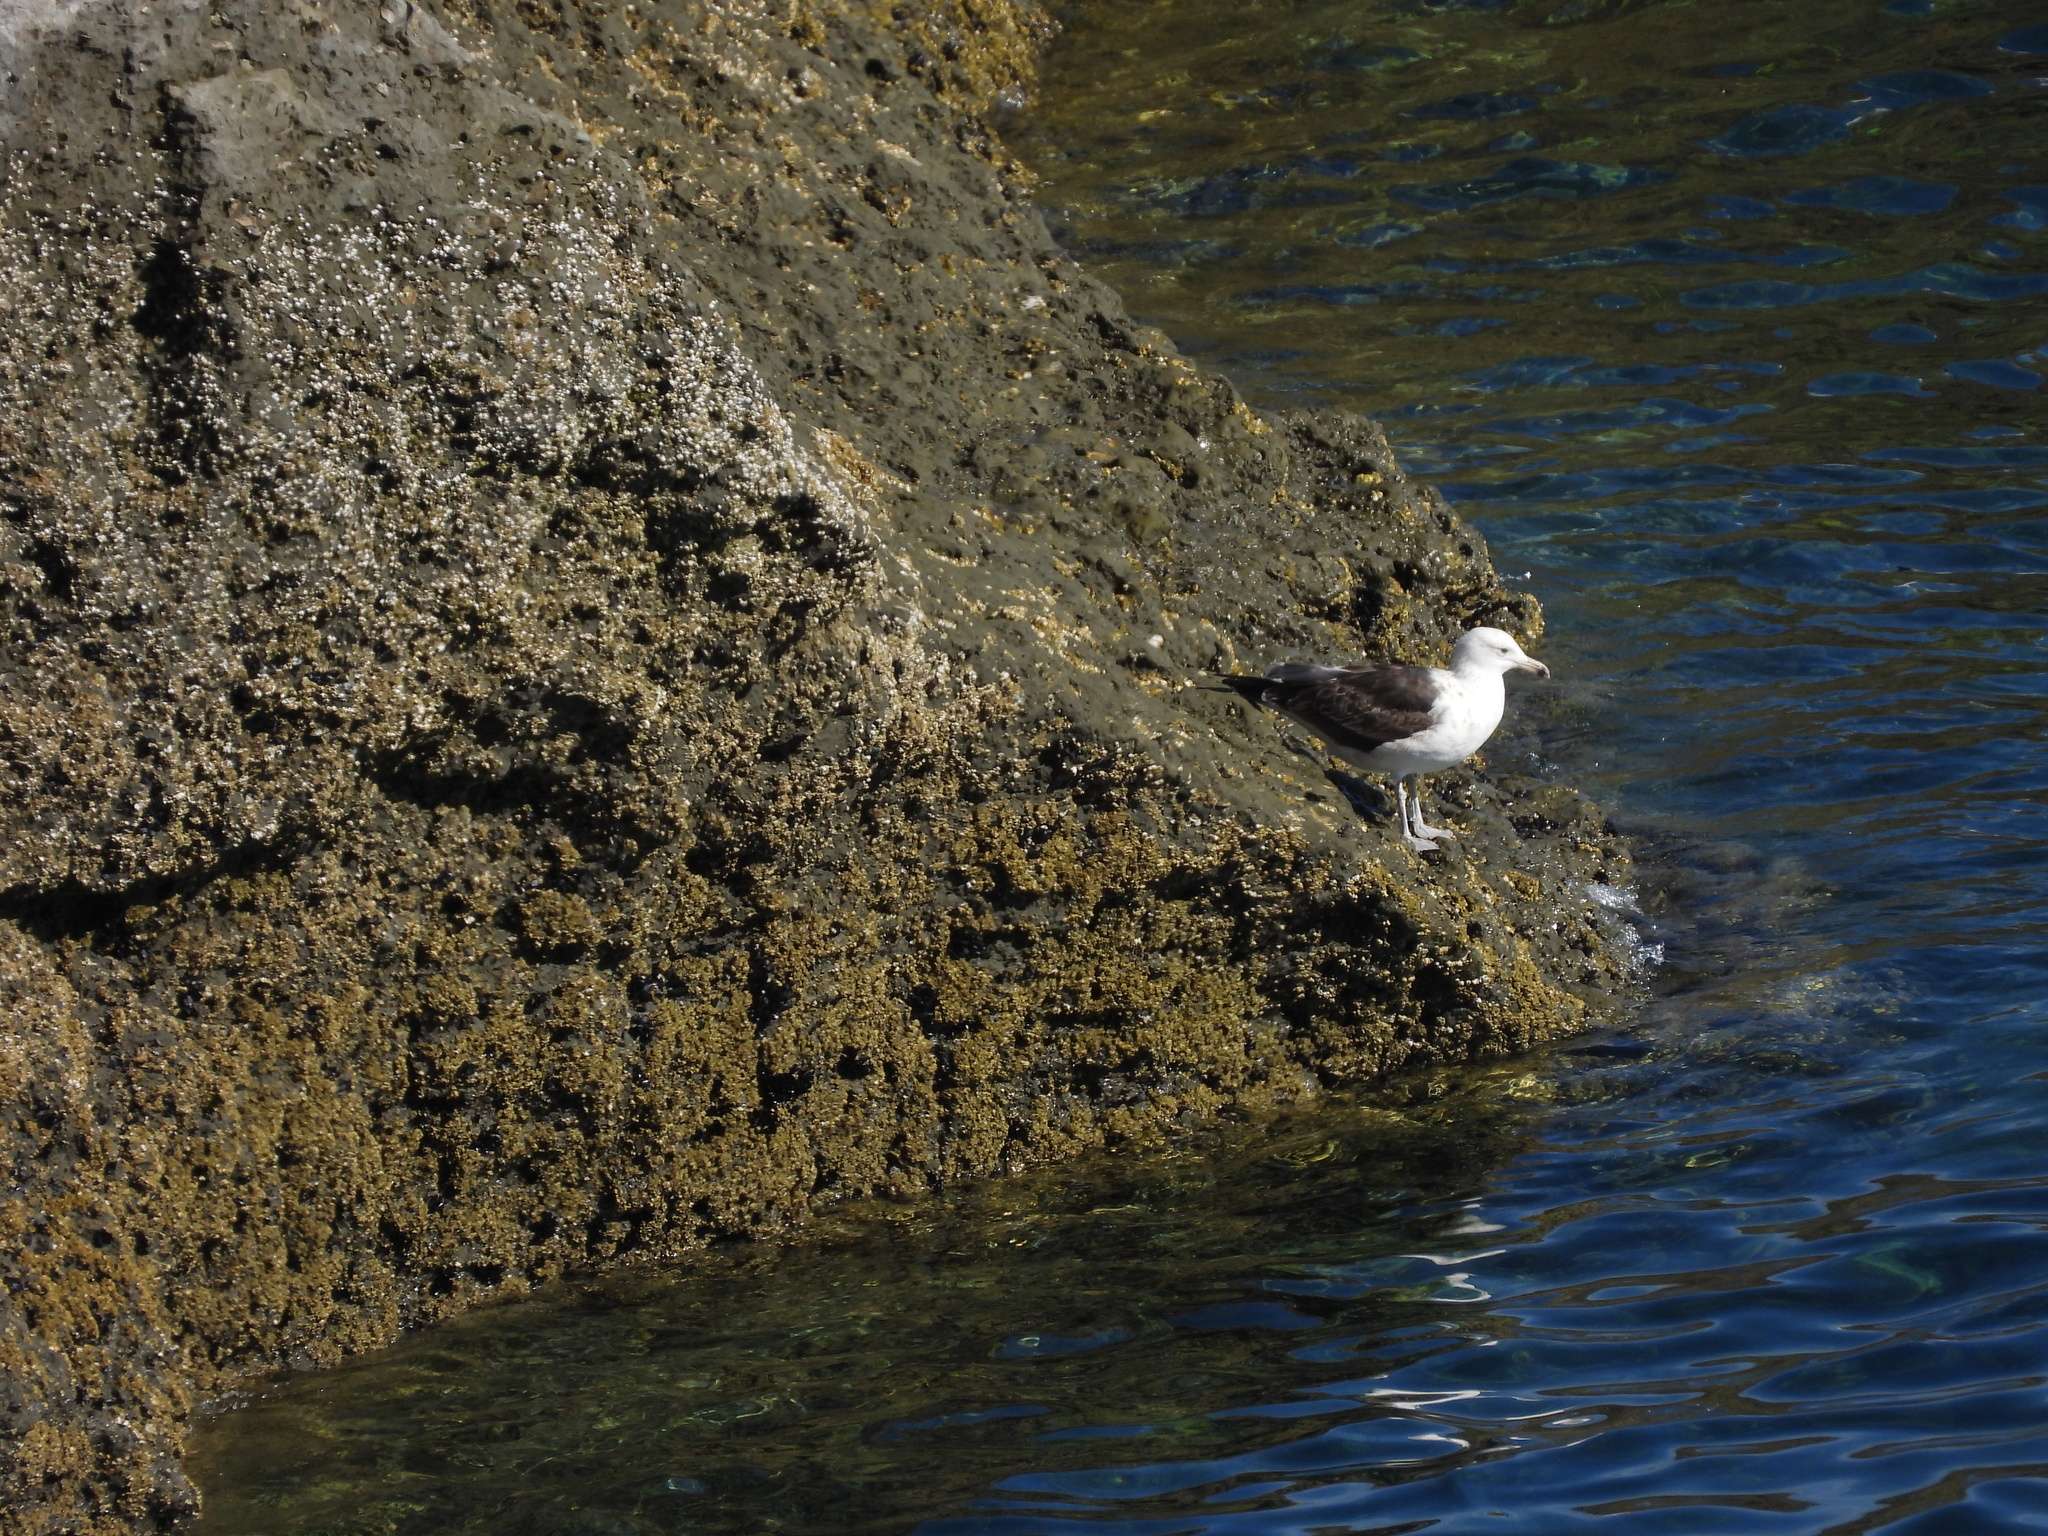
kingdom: Animalia
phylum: Chordata
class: Aves
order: Charadriiformes
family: Laridae
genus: Larus
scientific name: Larus dominicanus
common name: Kelp gull
